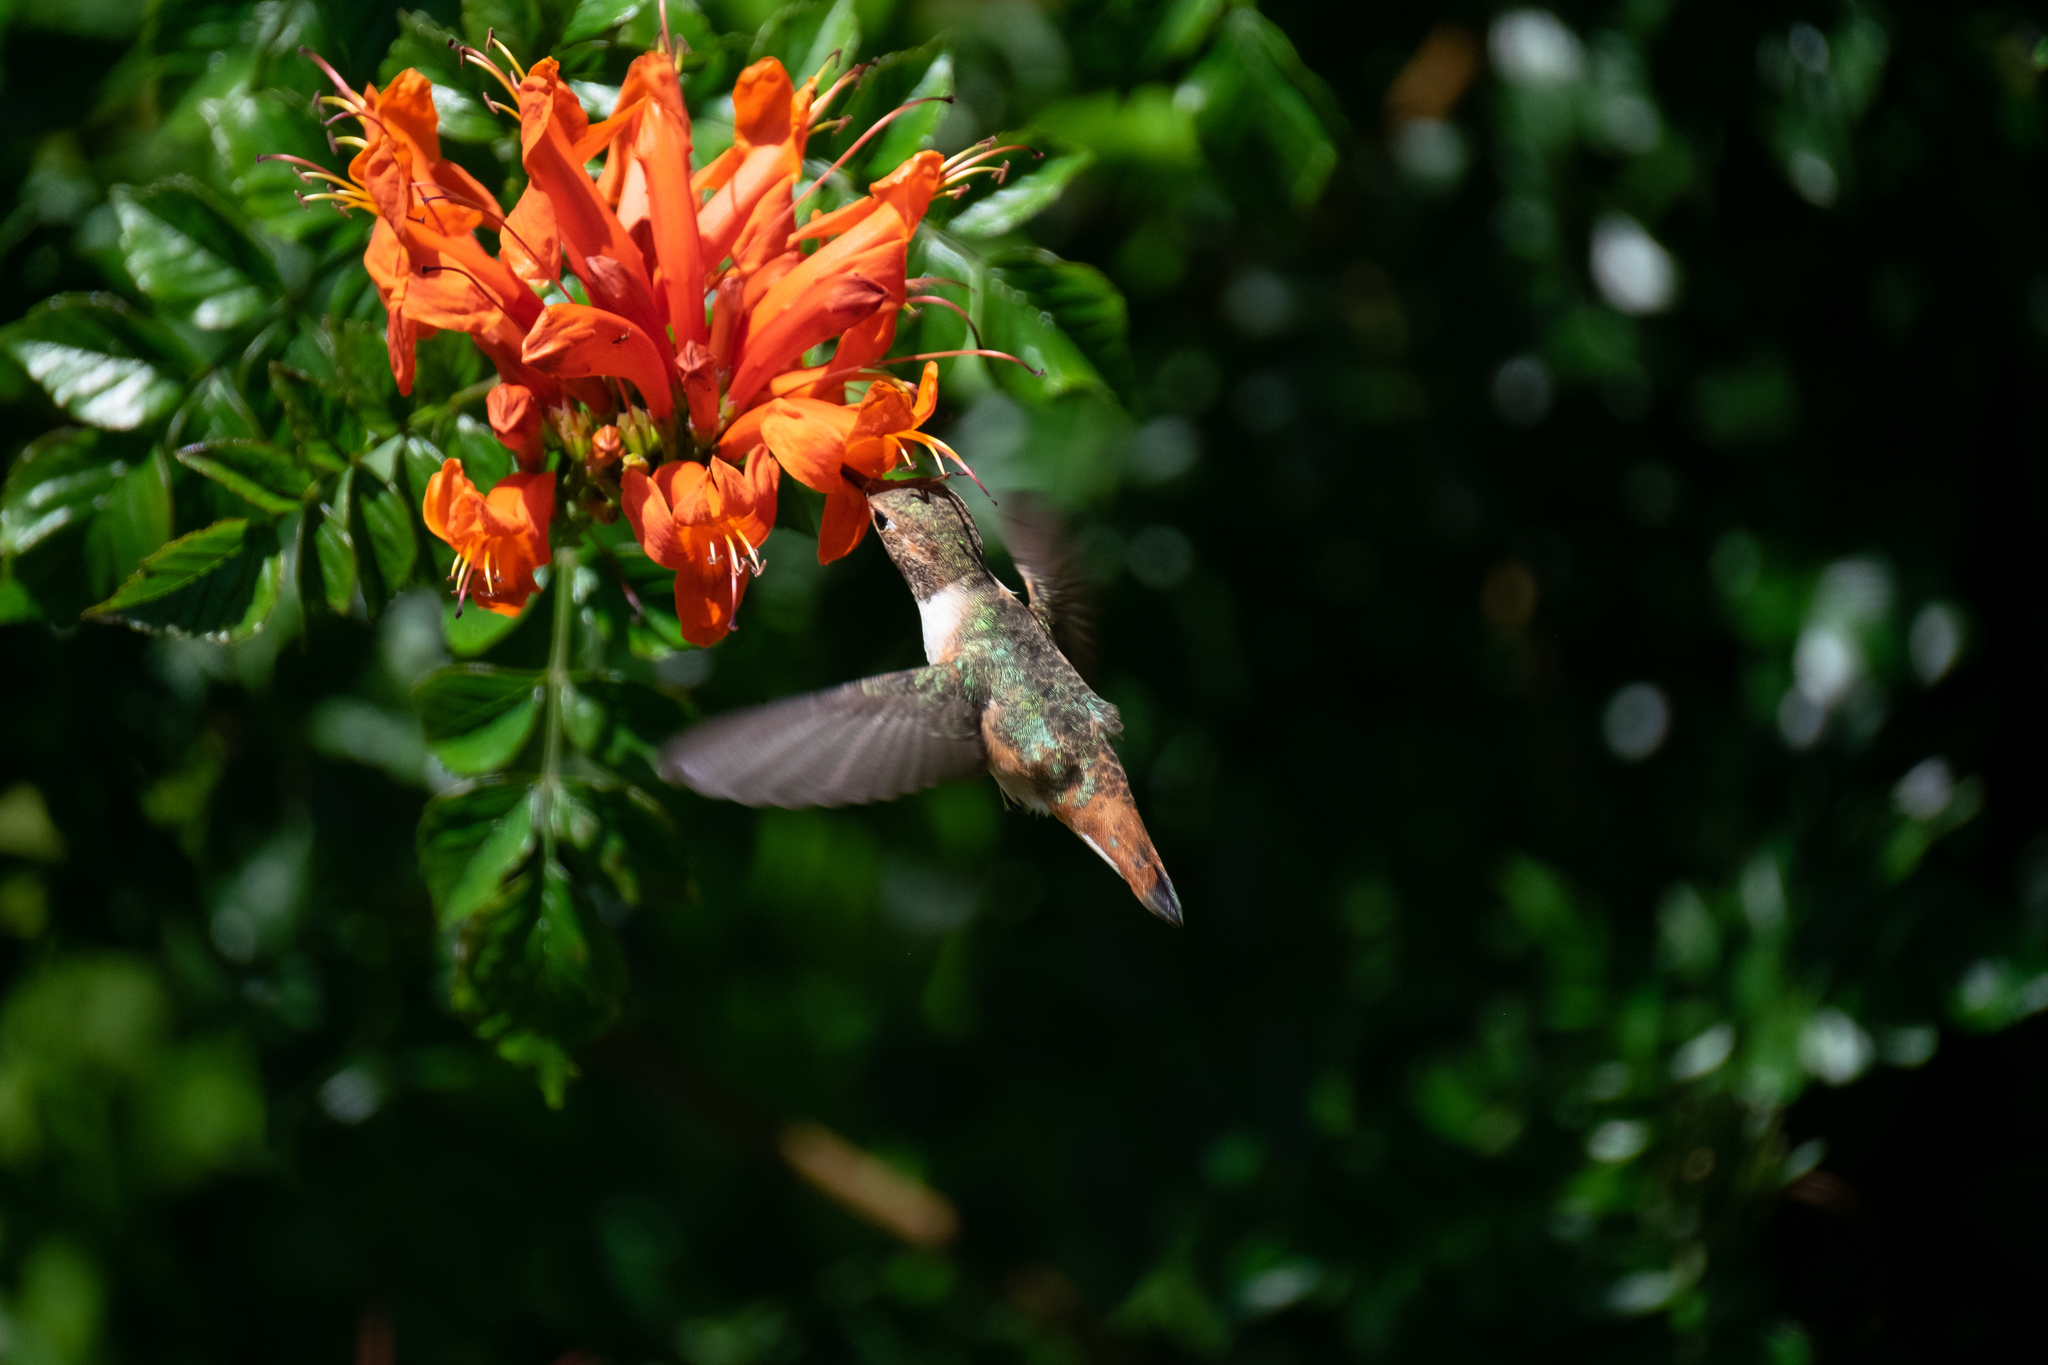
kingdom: Animalia
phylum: Chordata
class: Aves
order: Apodiformes
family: Trochilidae
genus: Selasphorus
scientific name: Selasphorus sasin
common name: Allen's hummingbird
